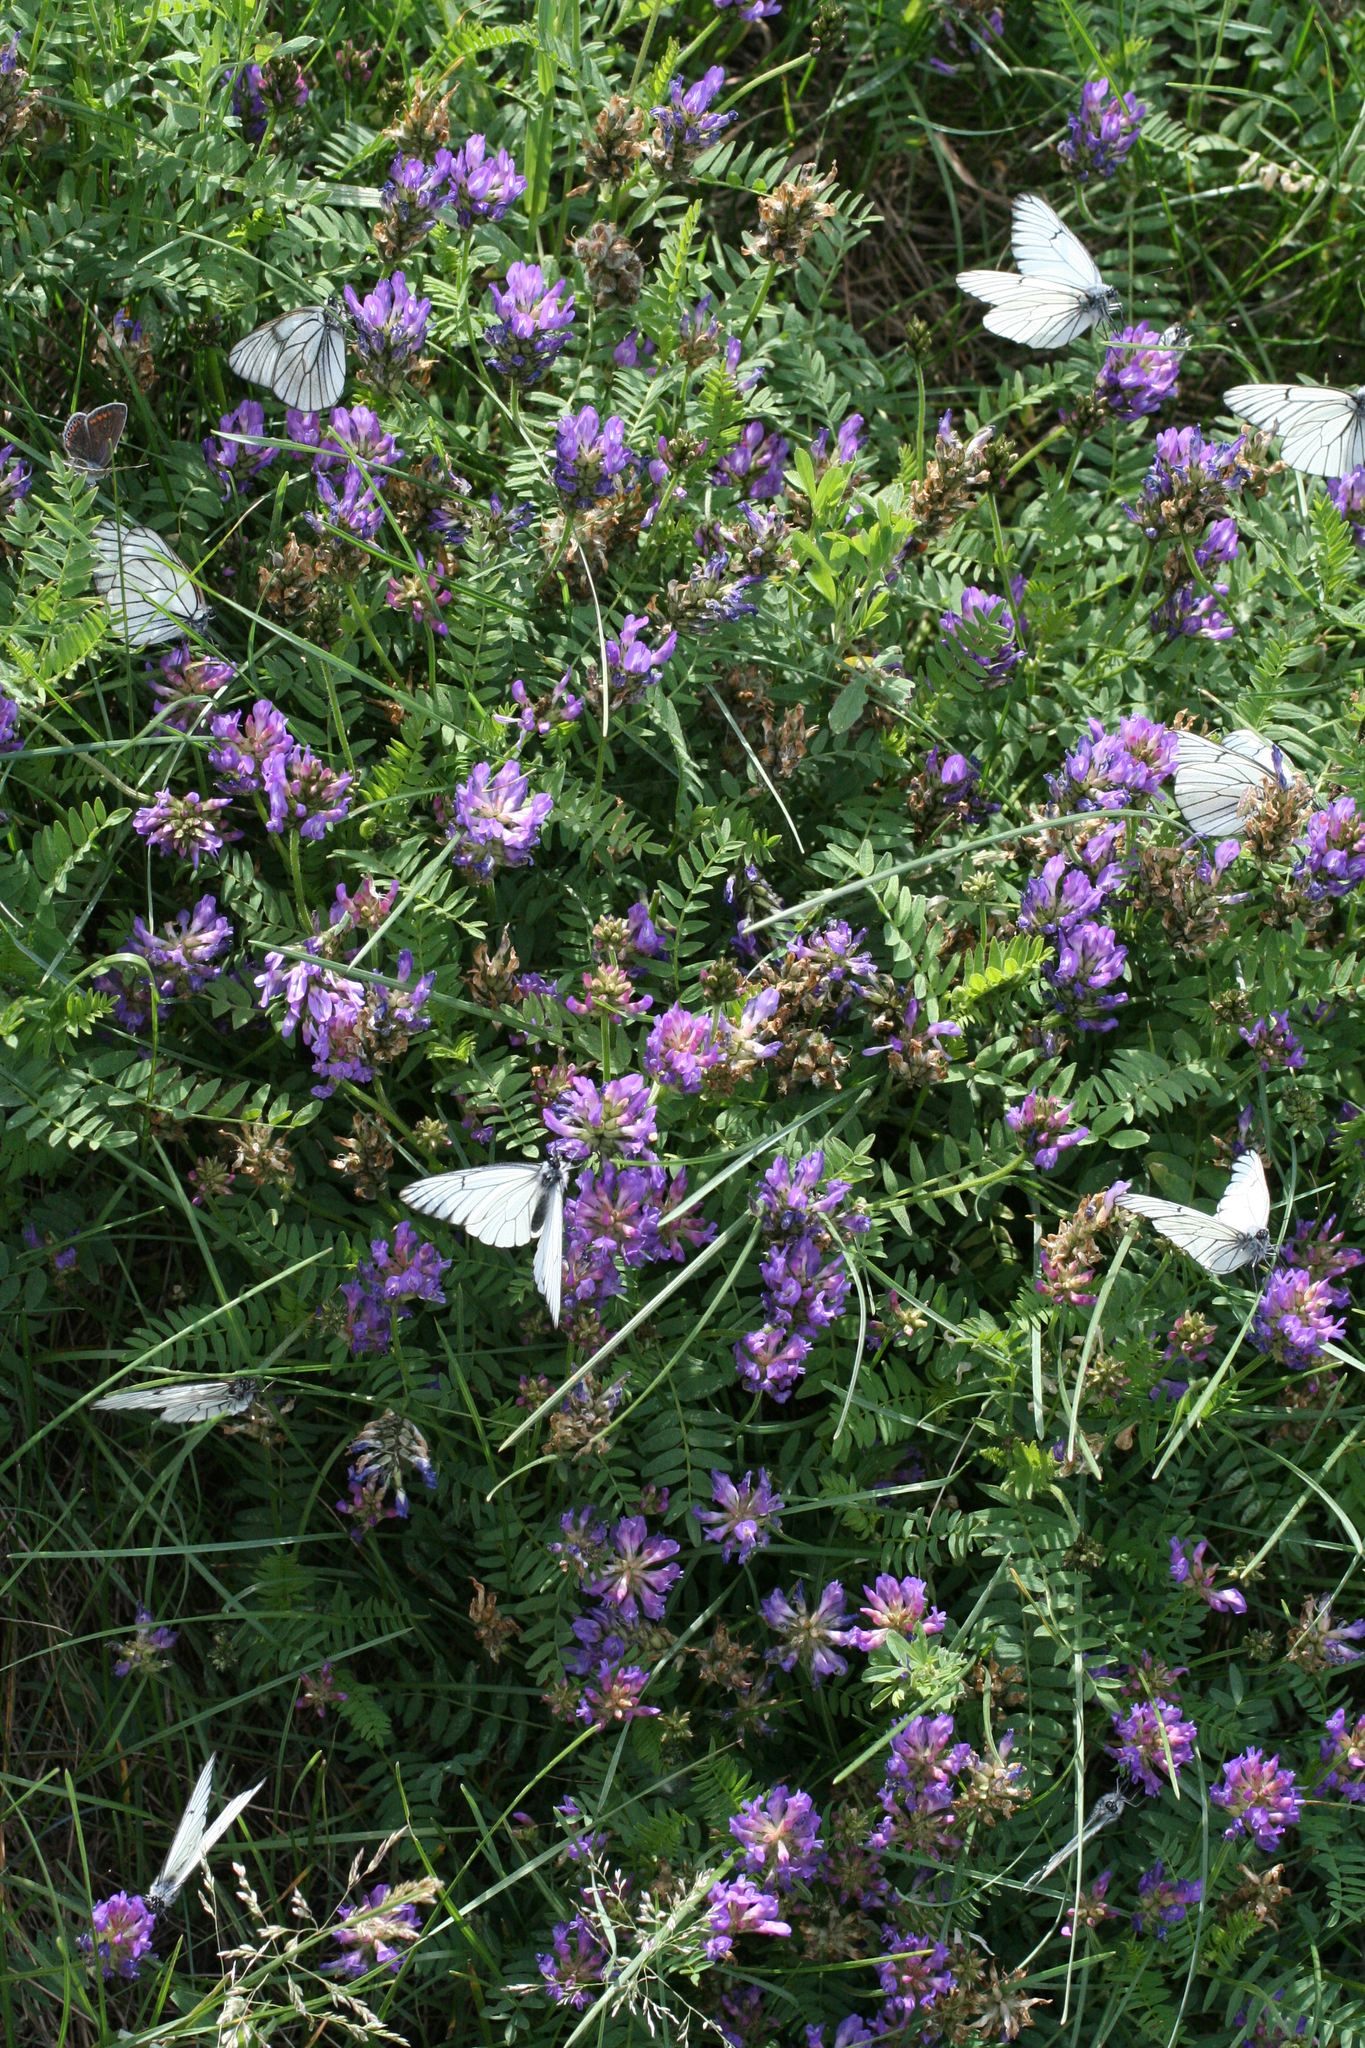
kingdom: Plantae
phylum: Tracheophyta
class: Magnoliopsida
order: Fabales
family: Fabaceae
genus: Astragalus
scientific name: Astragalus danicus
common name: Purple milk-vetch
